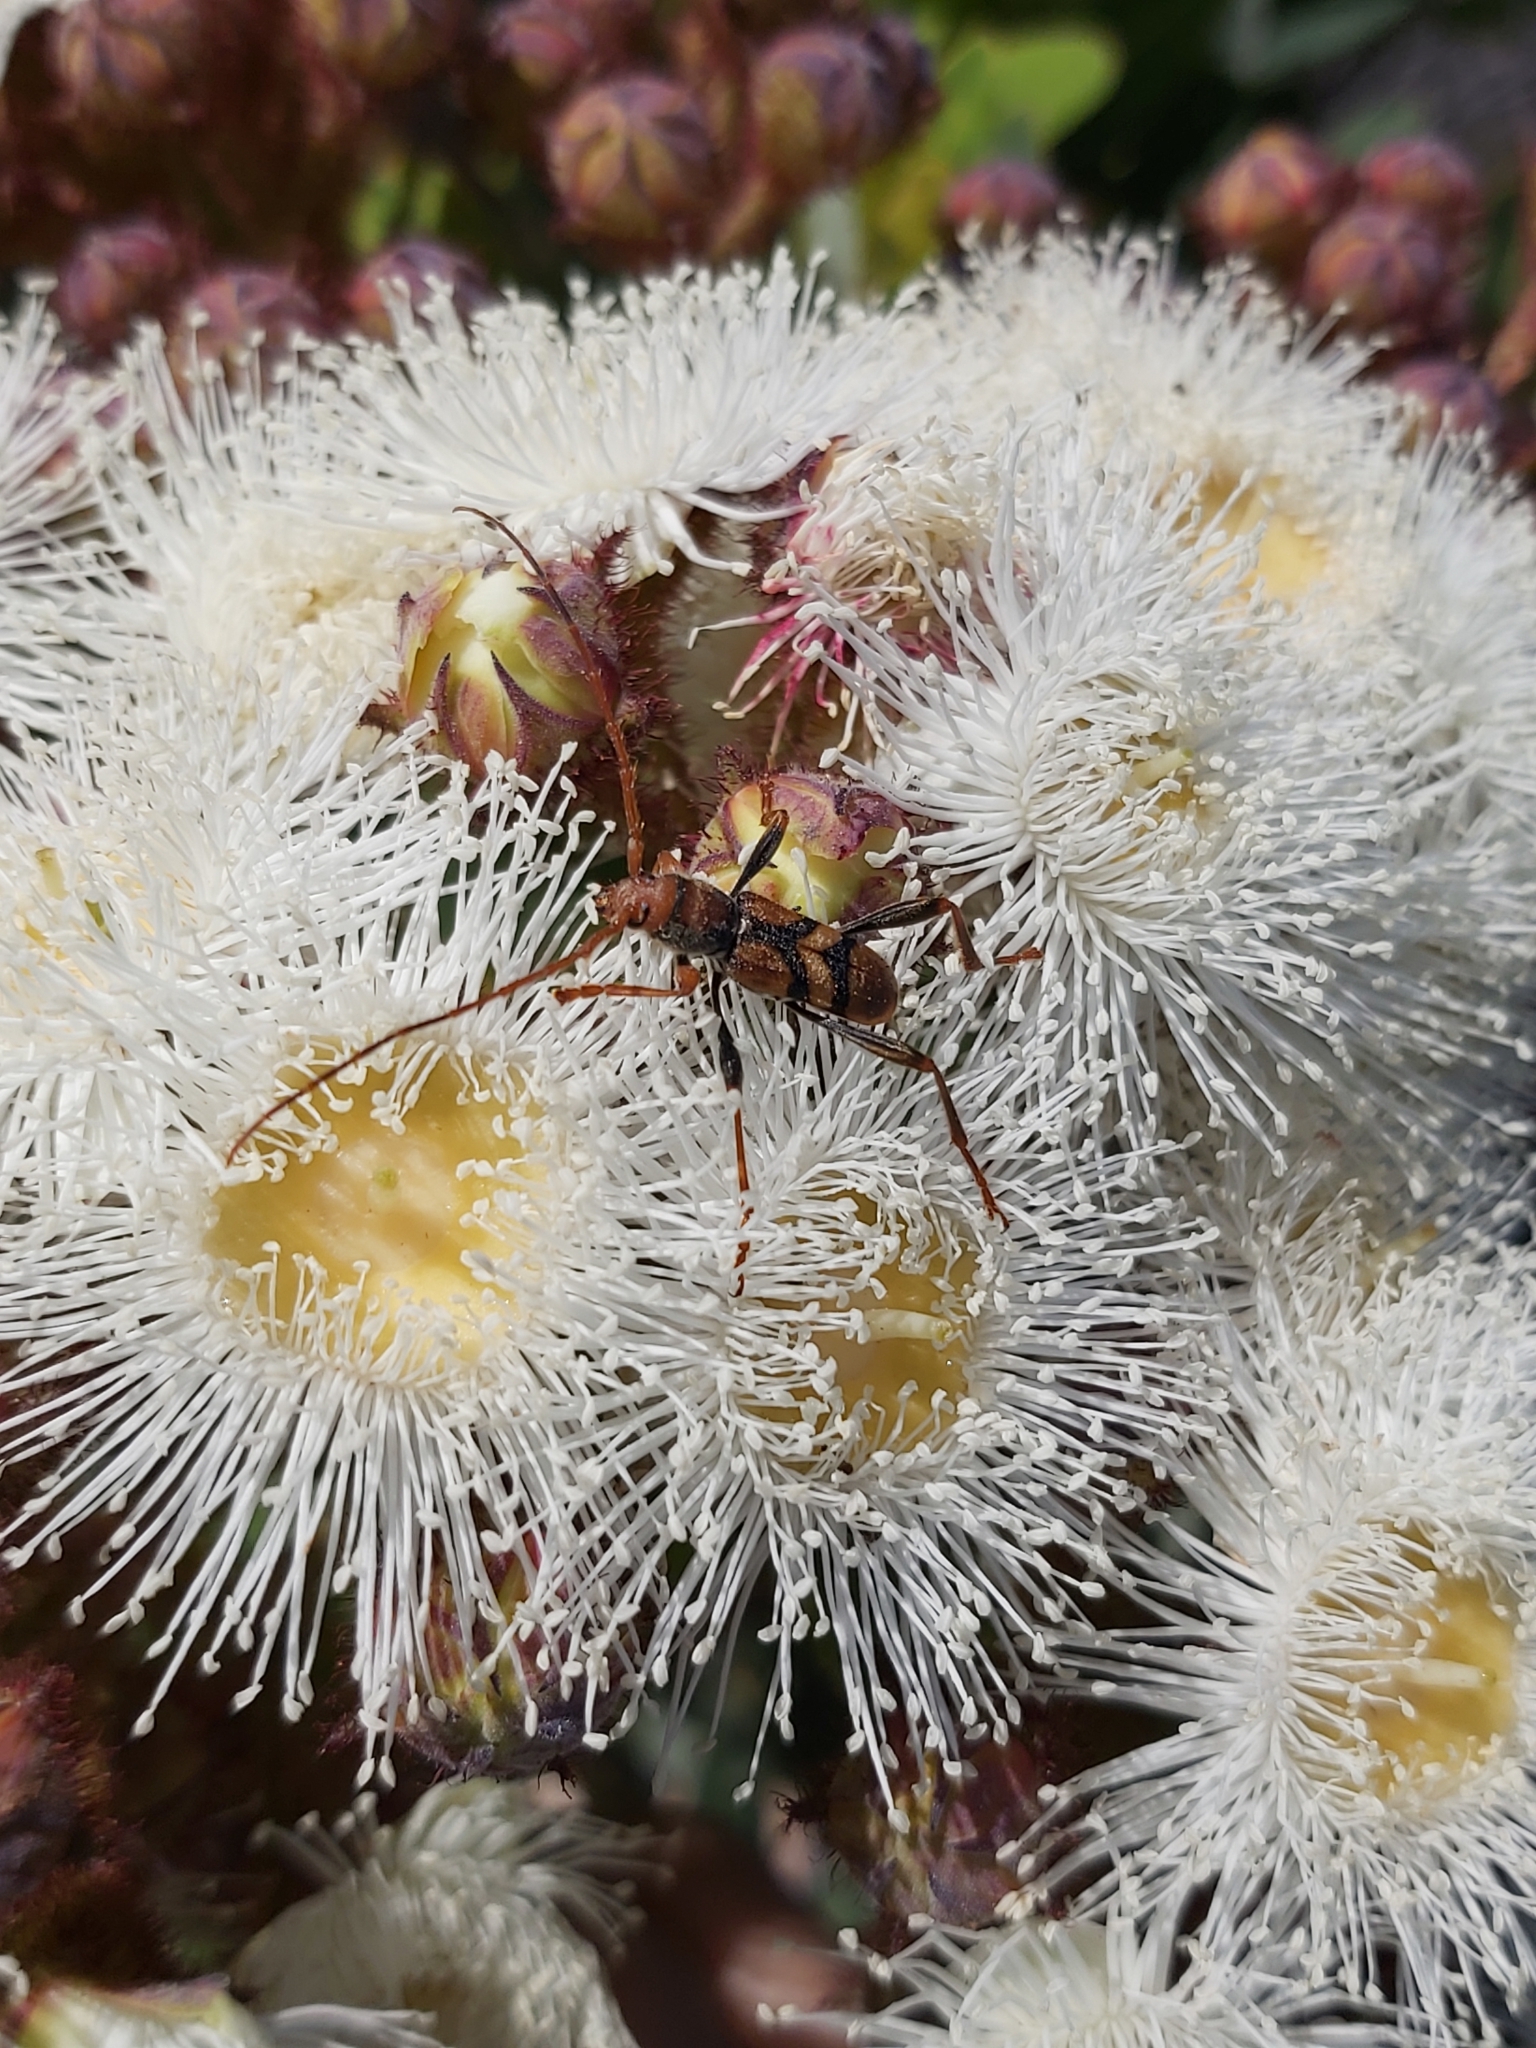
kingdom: Animalia
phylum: Arthropoda
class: Insecta
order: Coleoptera
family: Cerambycidae
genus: Aridaeus
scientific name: Aridaeus thoracicus
